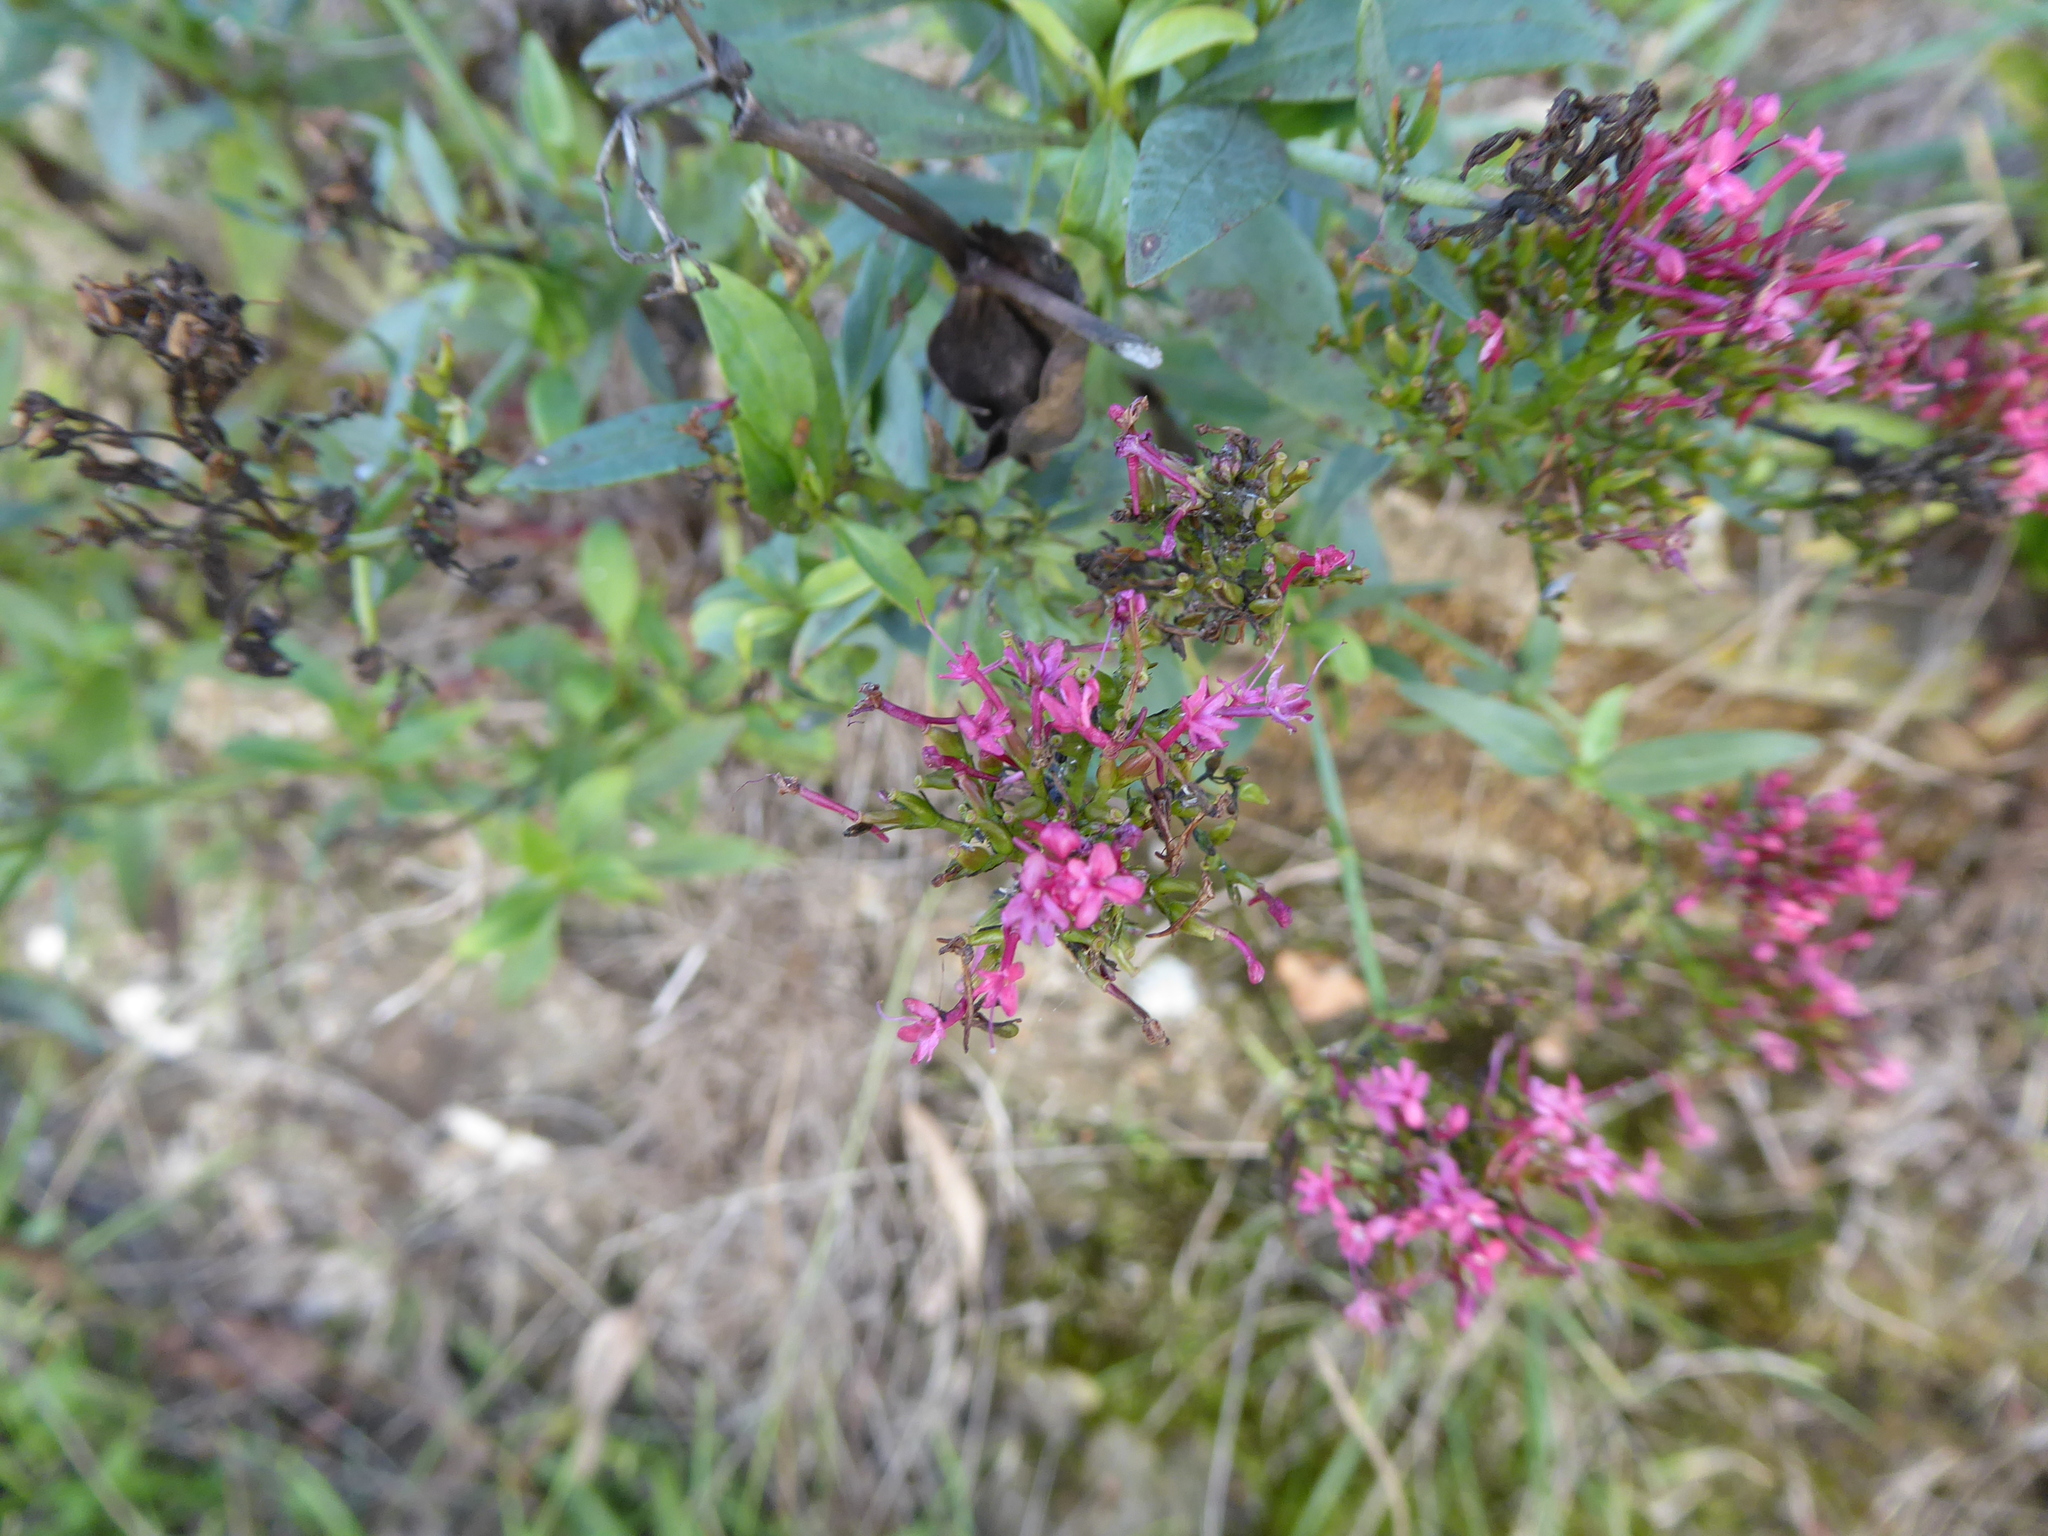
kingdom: Plantae
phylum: Tracheophyta
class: Magnoliopsida
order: Dipsacales
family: Caprifoliaceae
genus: Centranthus
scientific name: Centranthus ruber
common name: Red valerian
